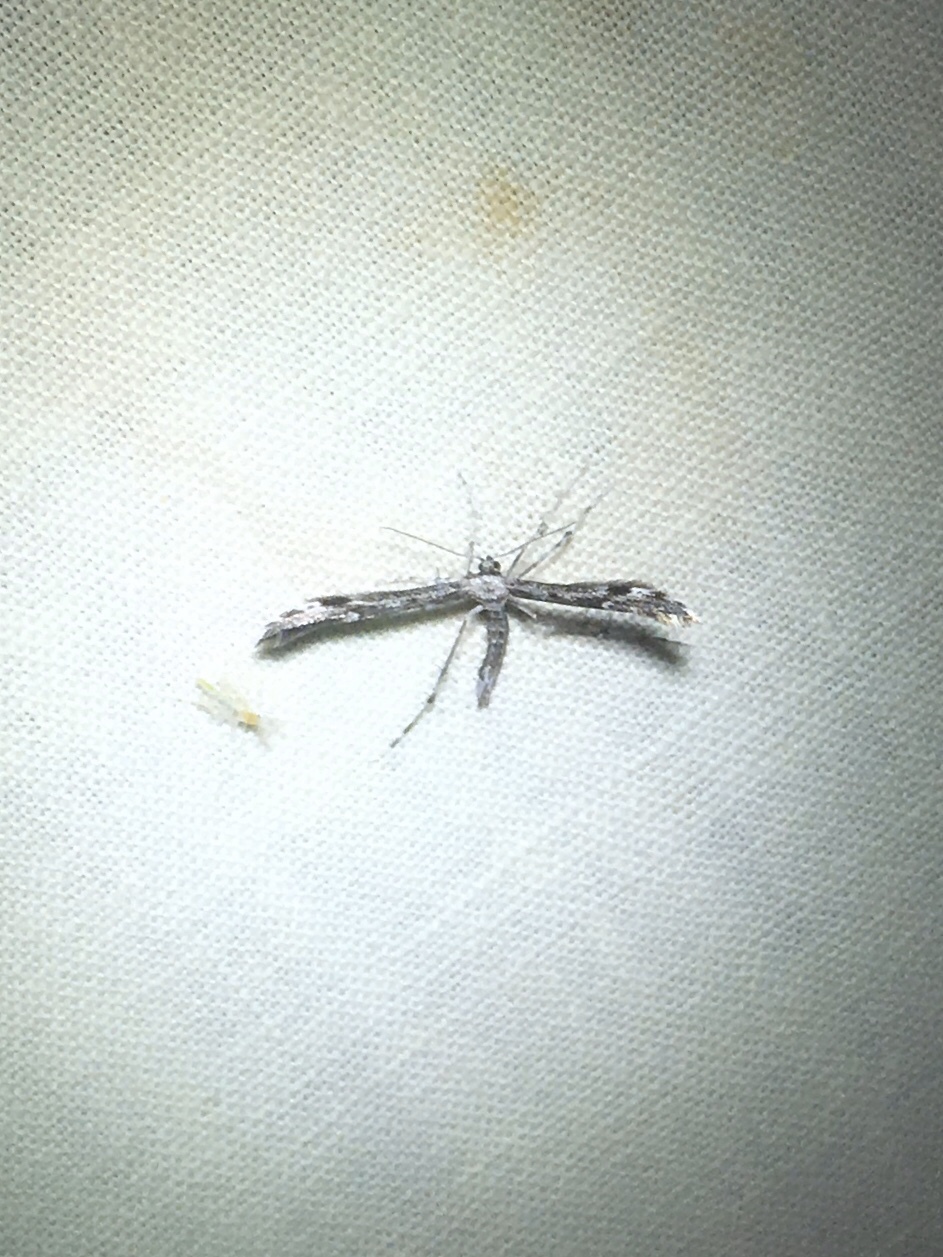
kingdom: Animalia
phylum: Arthropoda
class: Insecta
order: Lepidoptera
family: Pterophoridae
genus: Hellinsia
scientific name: Hellinsia inquinatus
